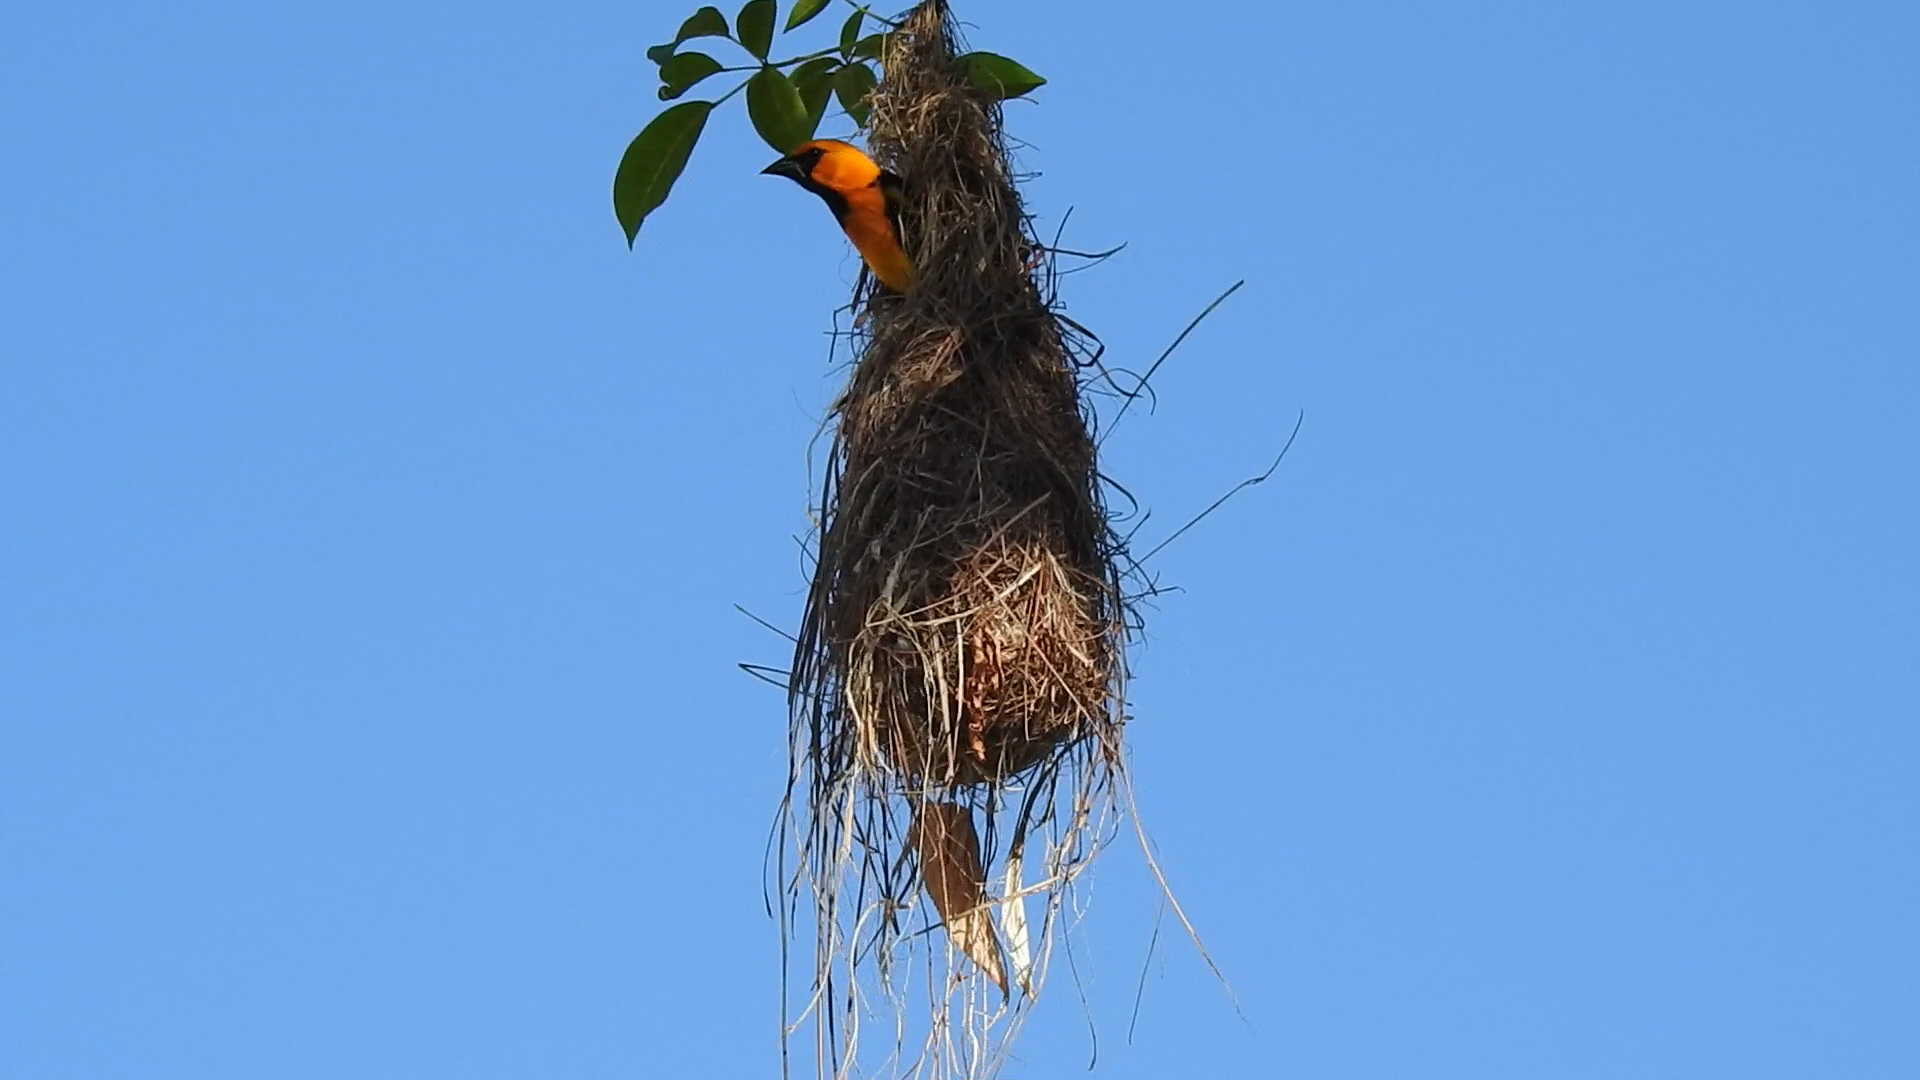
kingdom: Animalia
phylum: Chordata
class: Aves
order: Passeriformes
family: Icteridae
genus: Icterus
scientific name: Icterus gularis
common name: Altamira oriole
